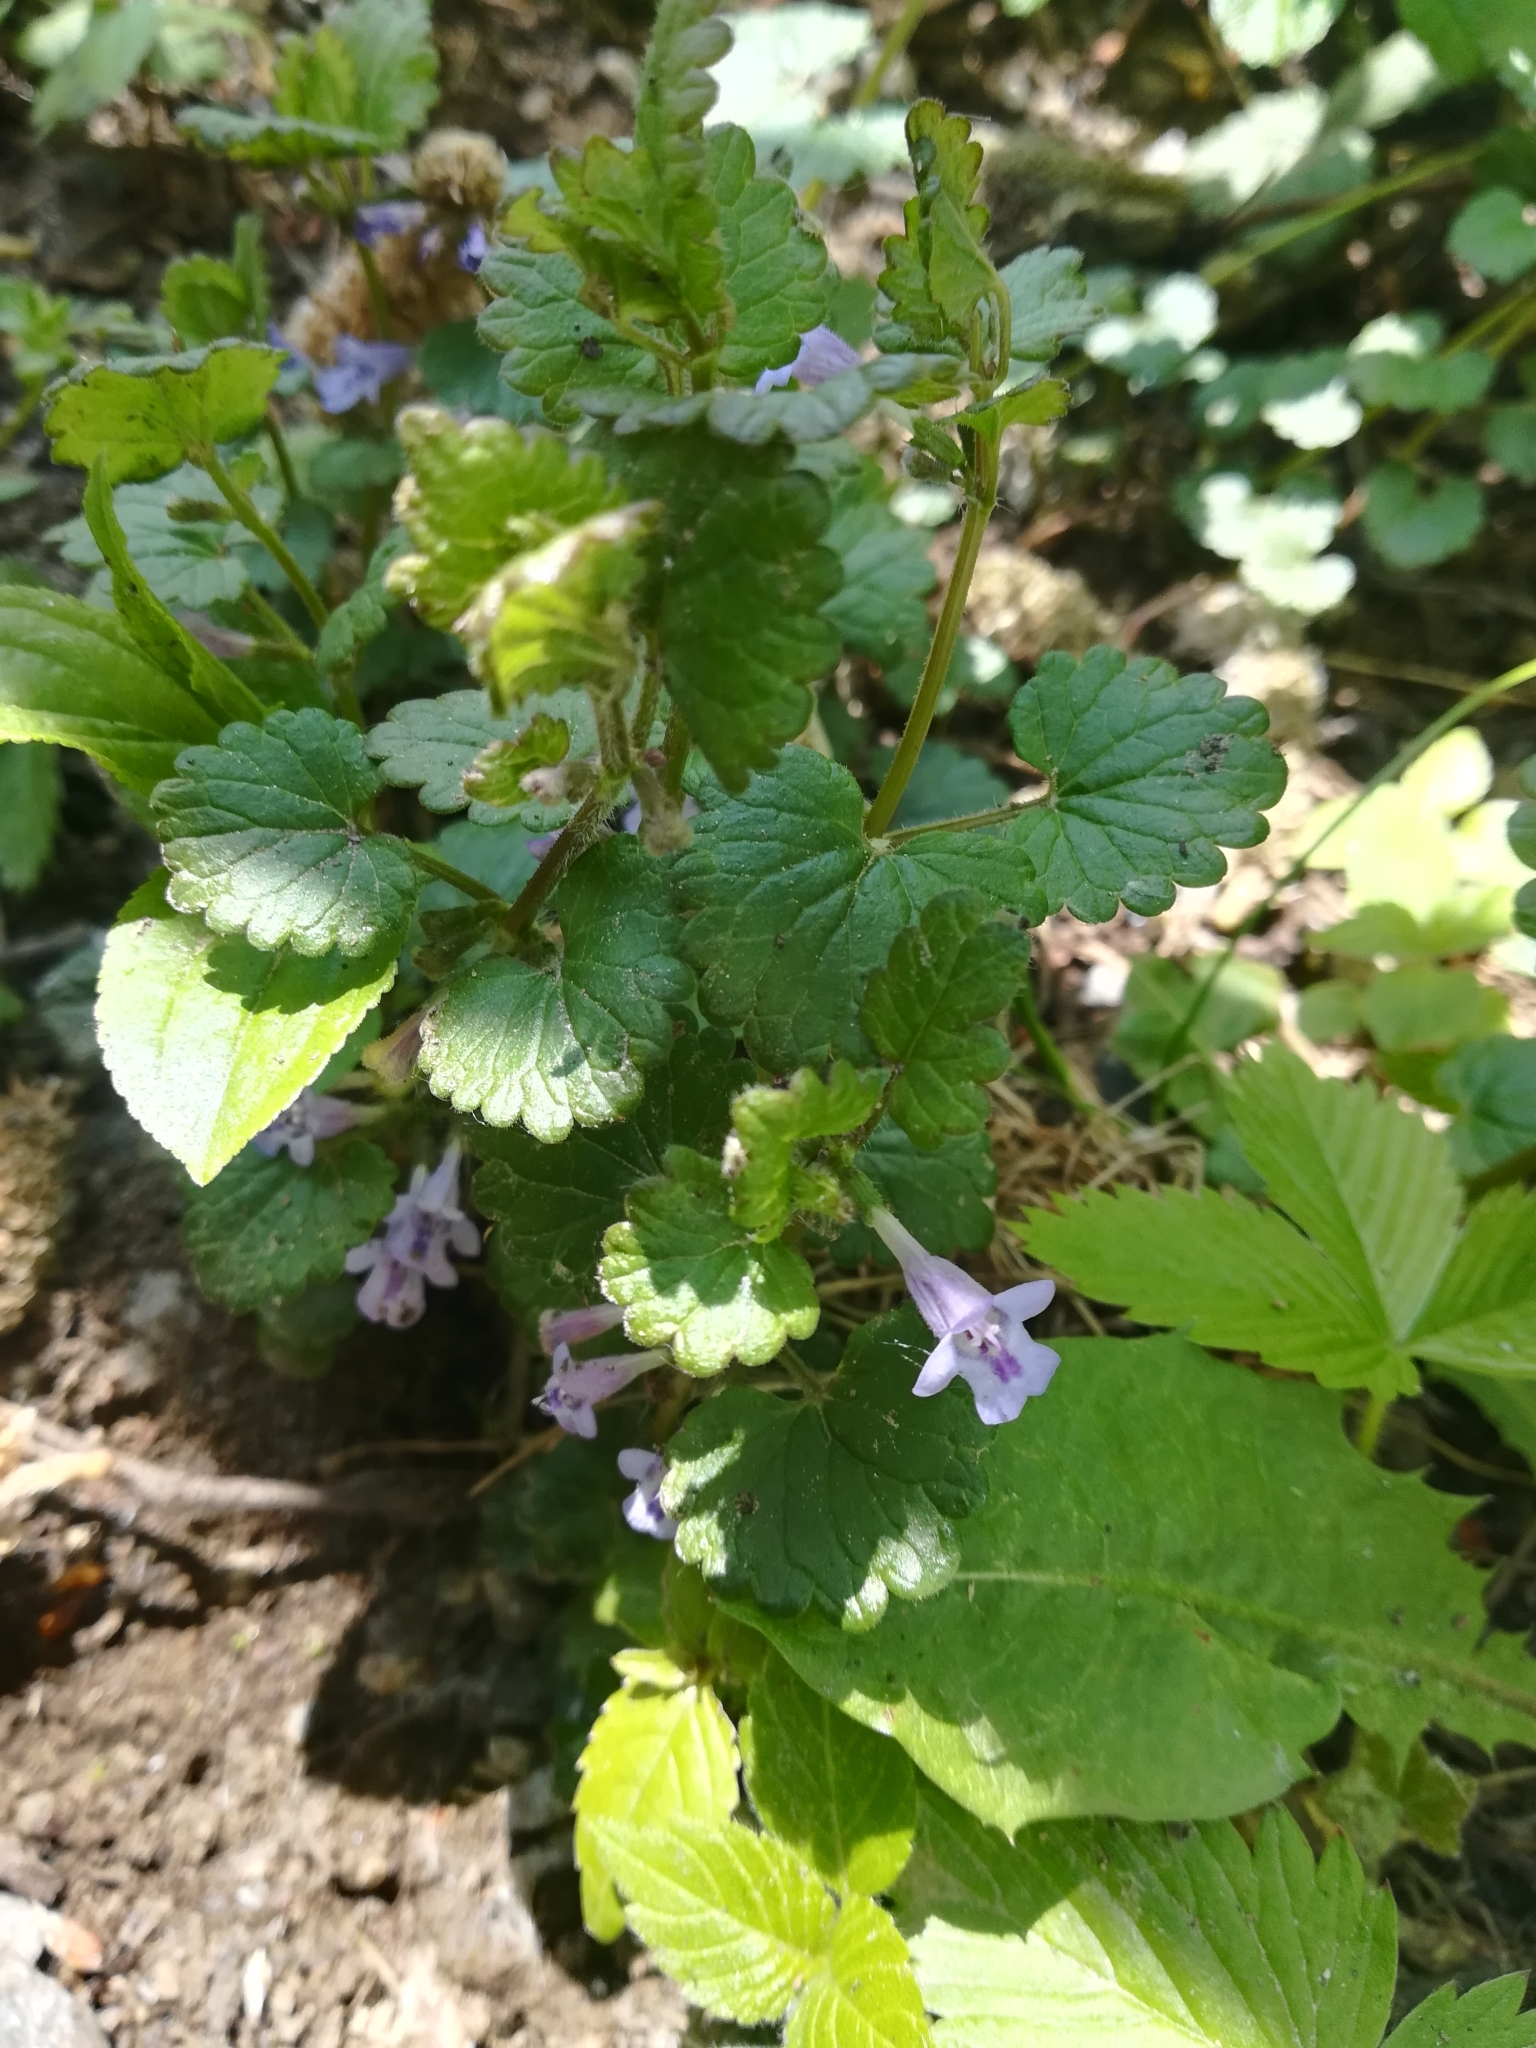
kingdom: Plantae
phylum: Tracheophyta
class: Magnoliopsida
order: Lamiales
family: Lamiaceae
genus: Glechoma
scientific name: Glechoma hederacea
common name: Ground ivy
